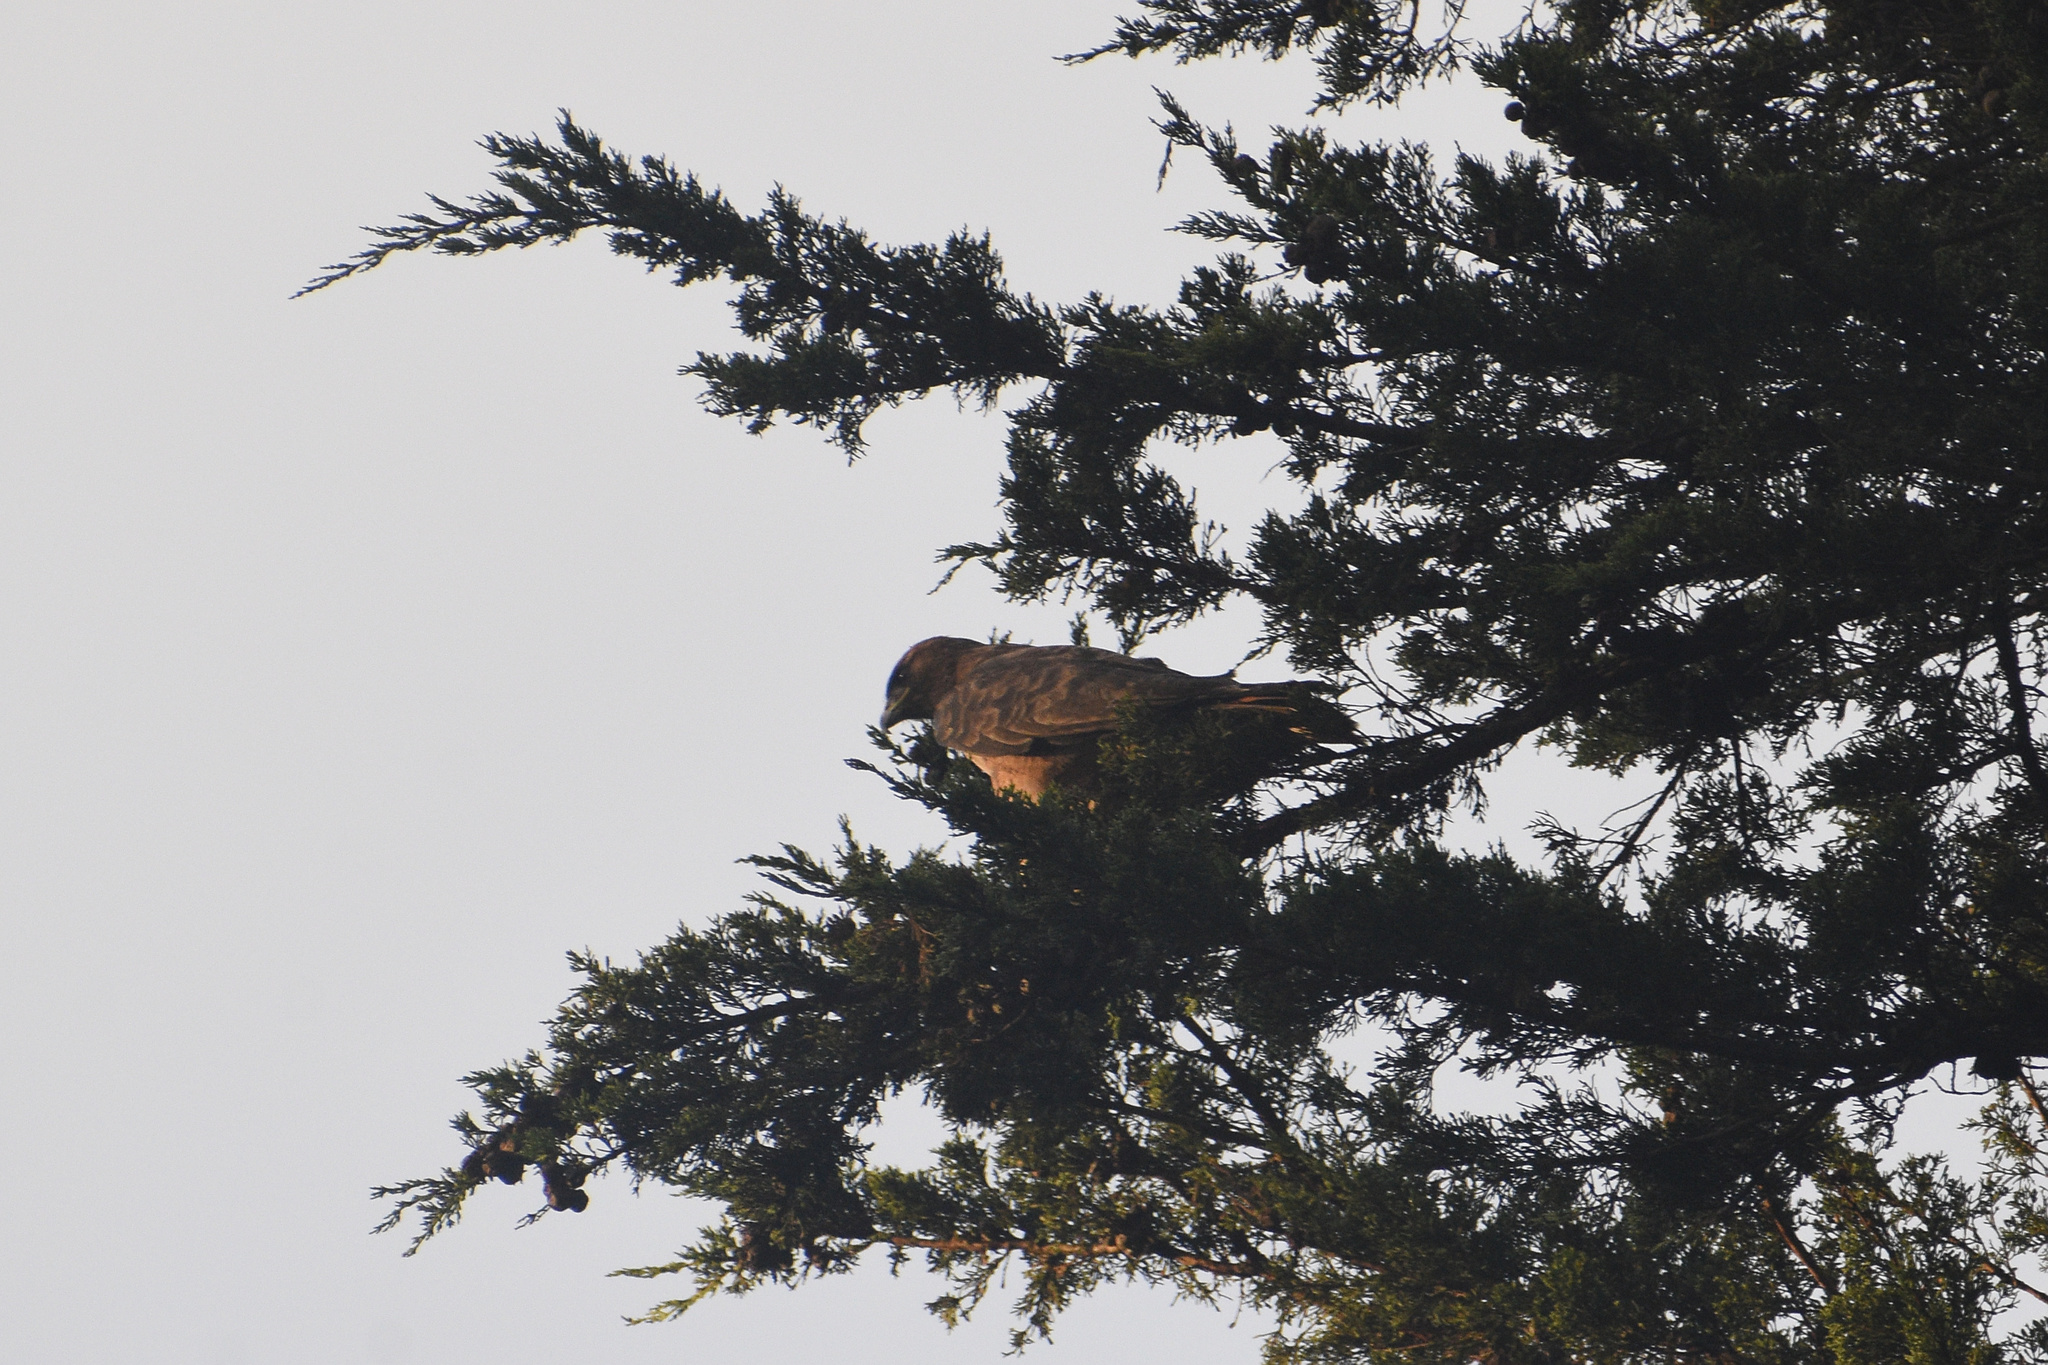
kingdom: Animalia
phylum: Chordata
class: Aves
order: Accipitriformes
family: Accipitridae
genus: Buteo
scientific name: Buteo jamaicensis
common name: Red-tailed hawk
